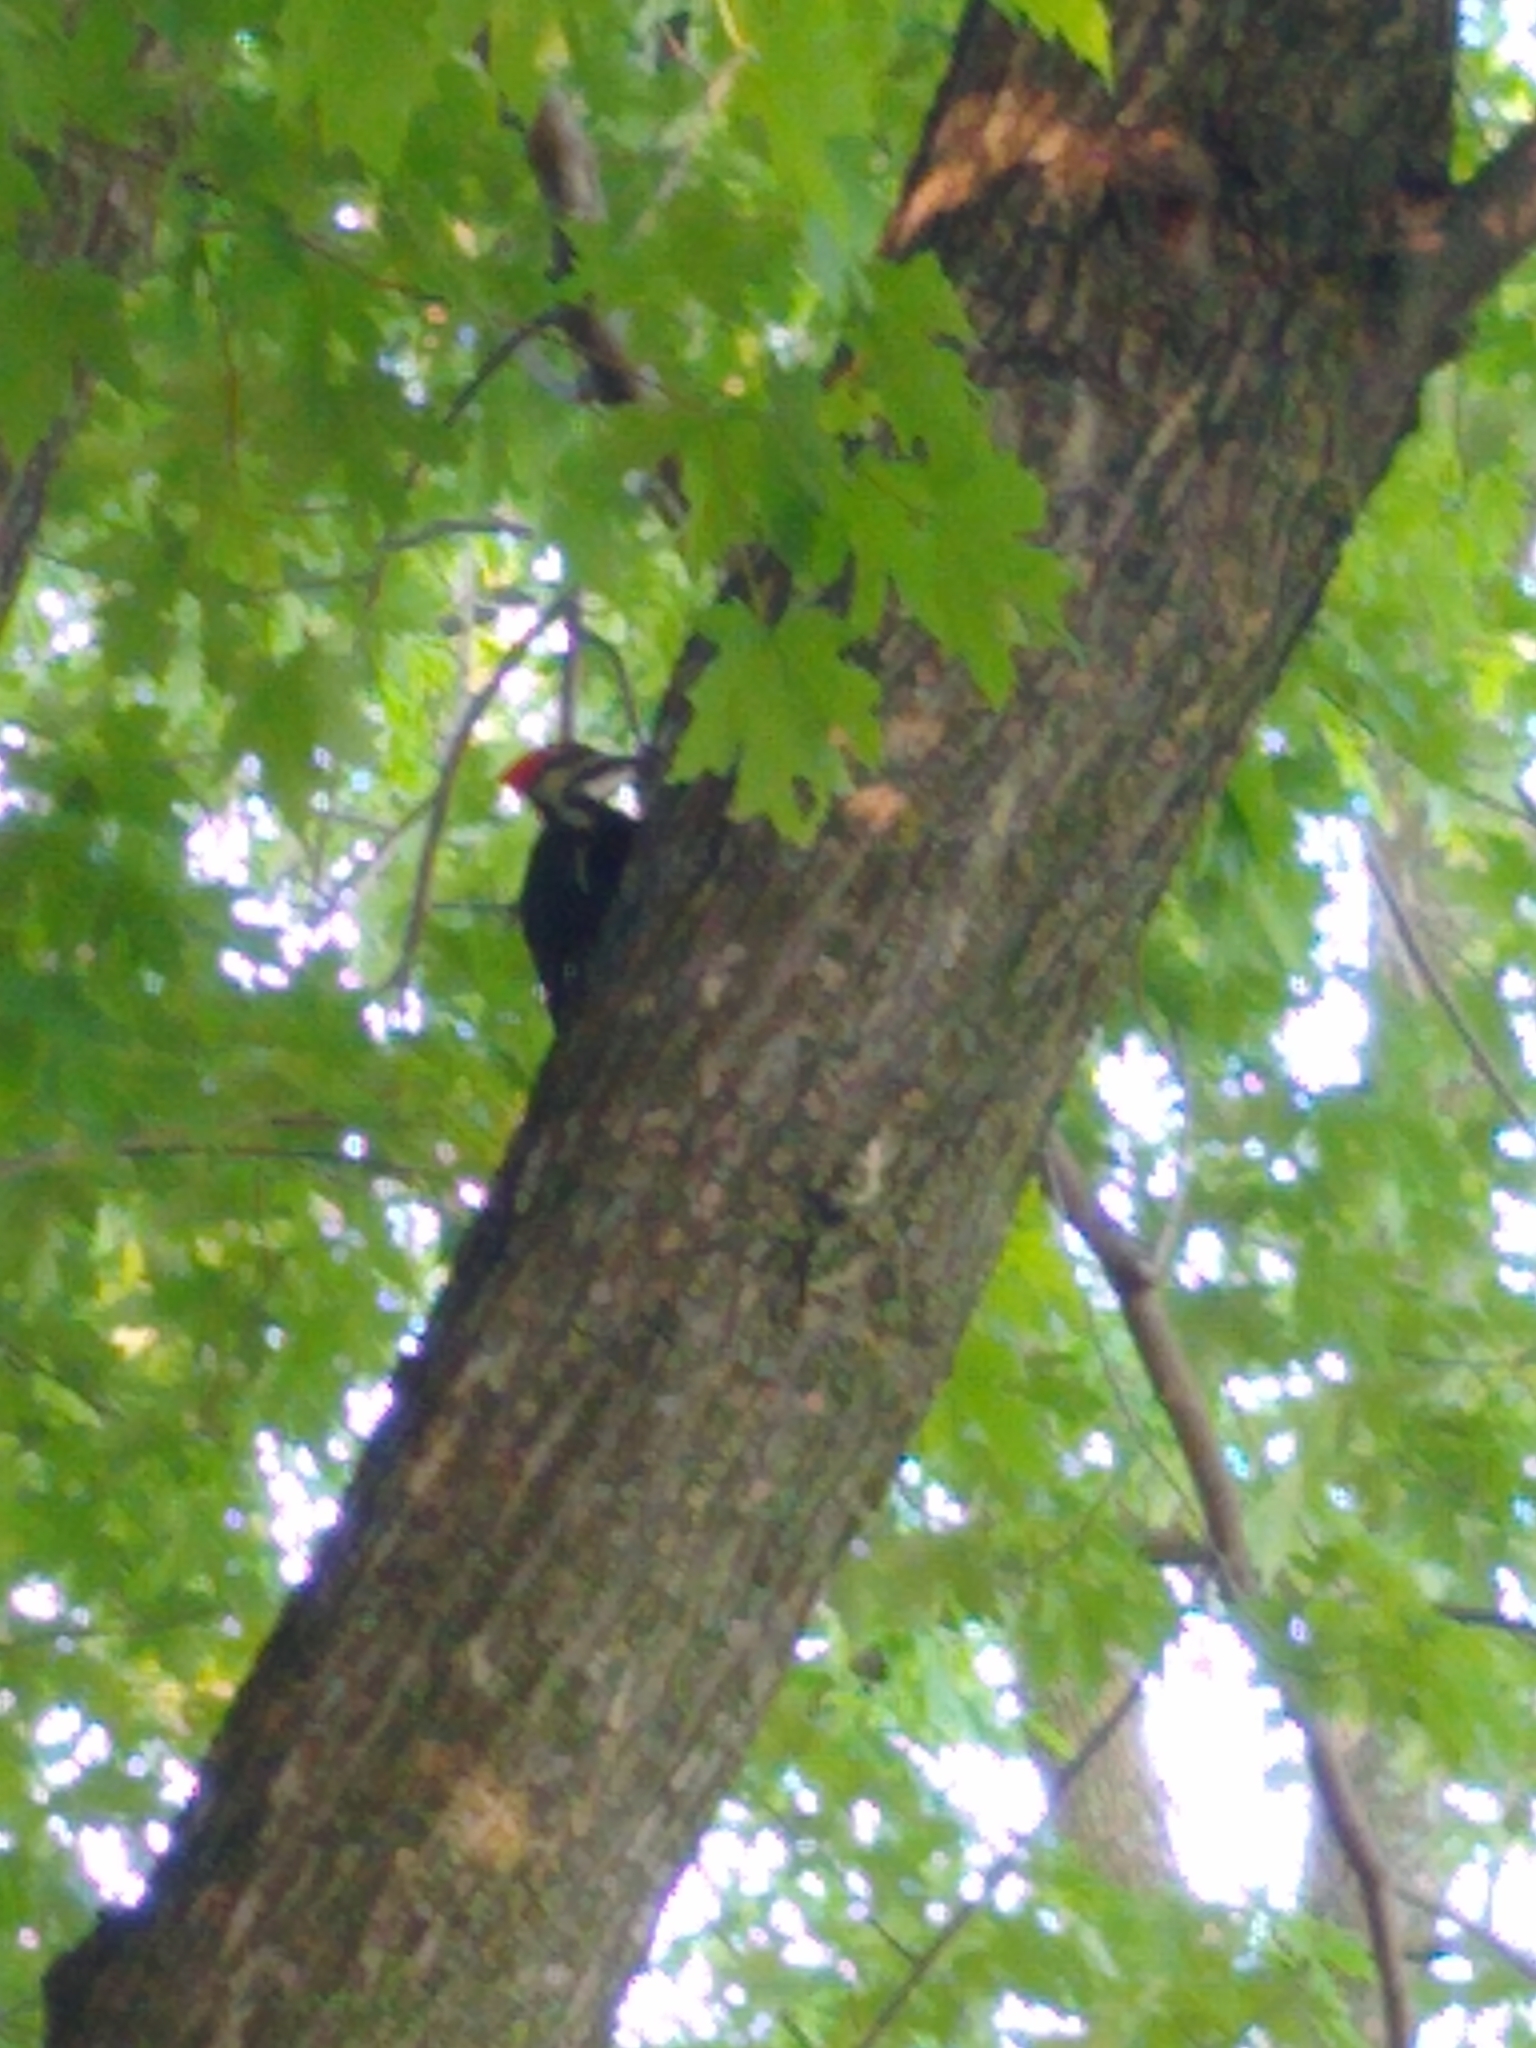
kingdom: Animalia
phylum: Chordata
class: Aves
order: Piciformes
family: Picidae
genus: Dryocopus
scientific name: Dryocopus pileatus
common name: Pileated woodpecker
